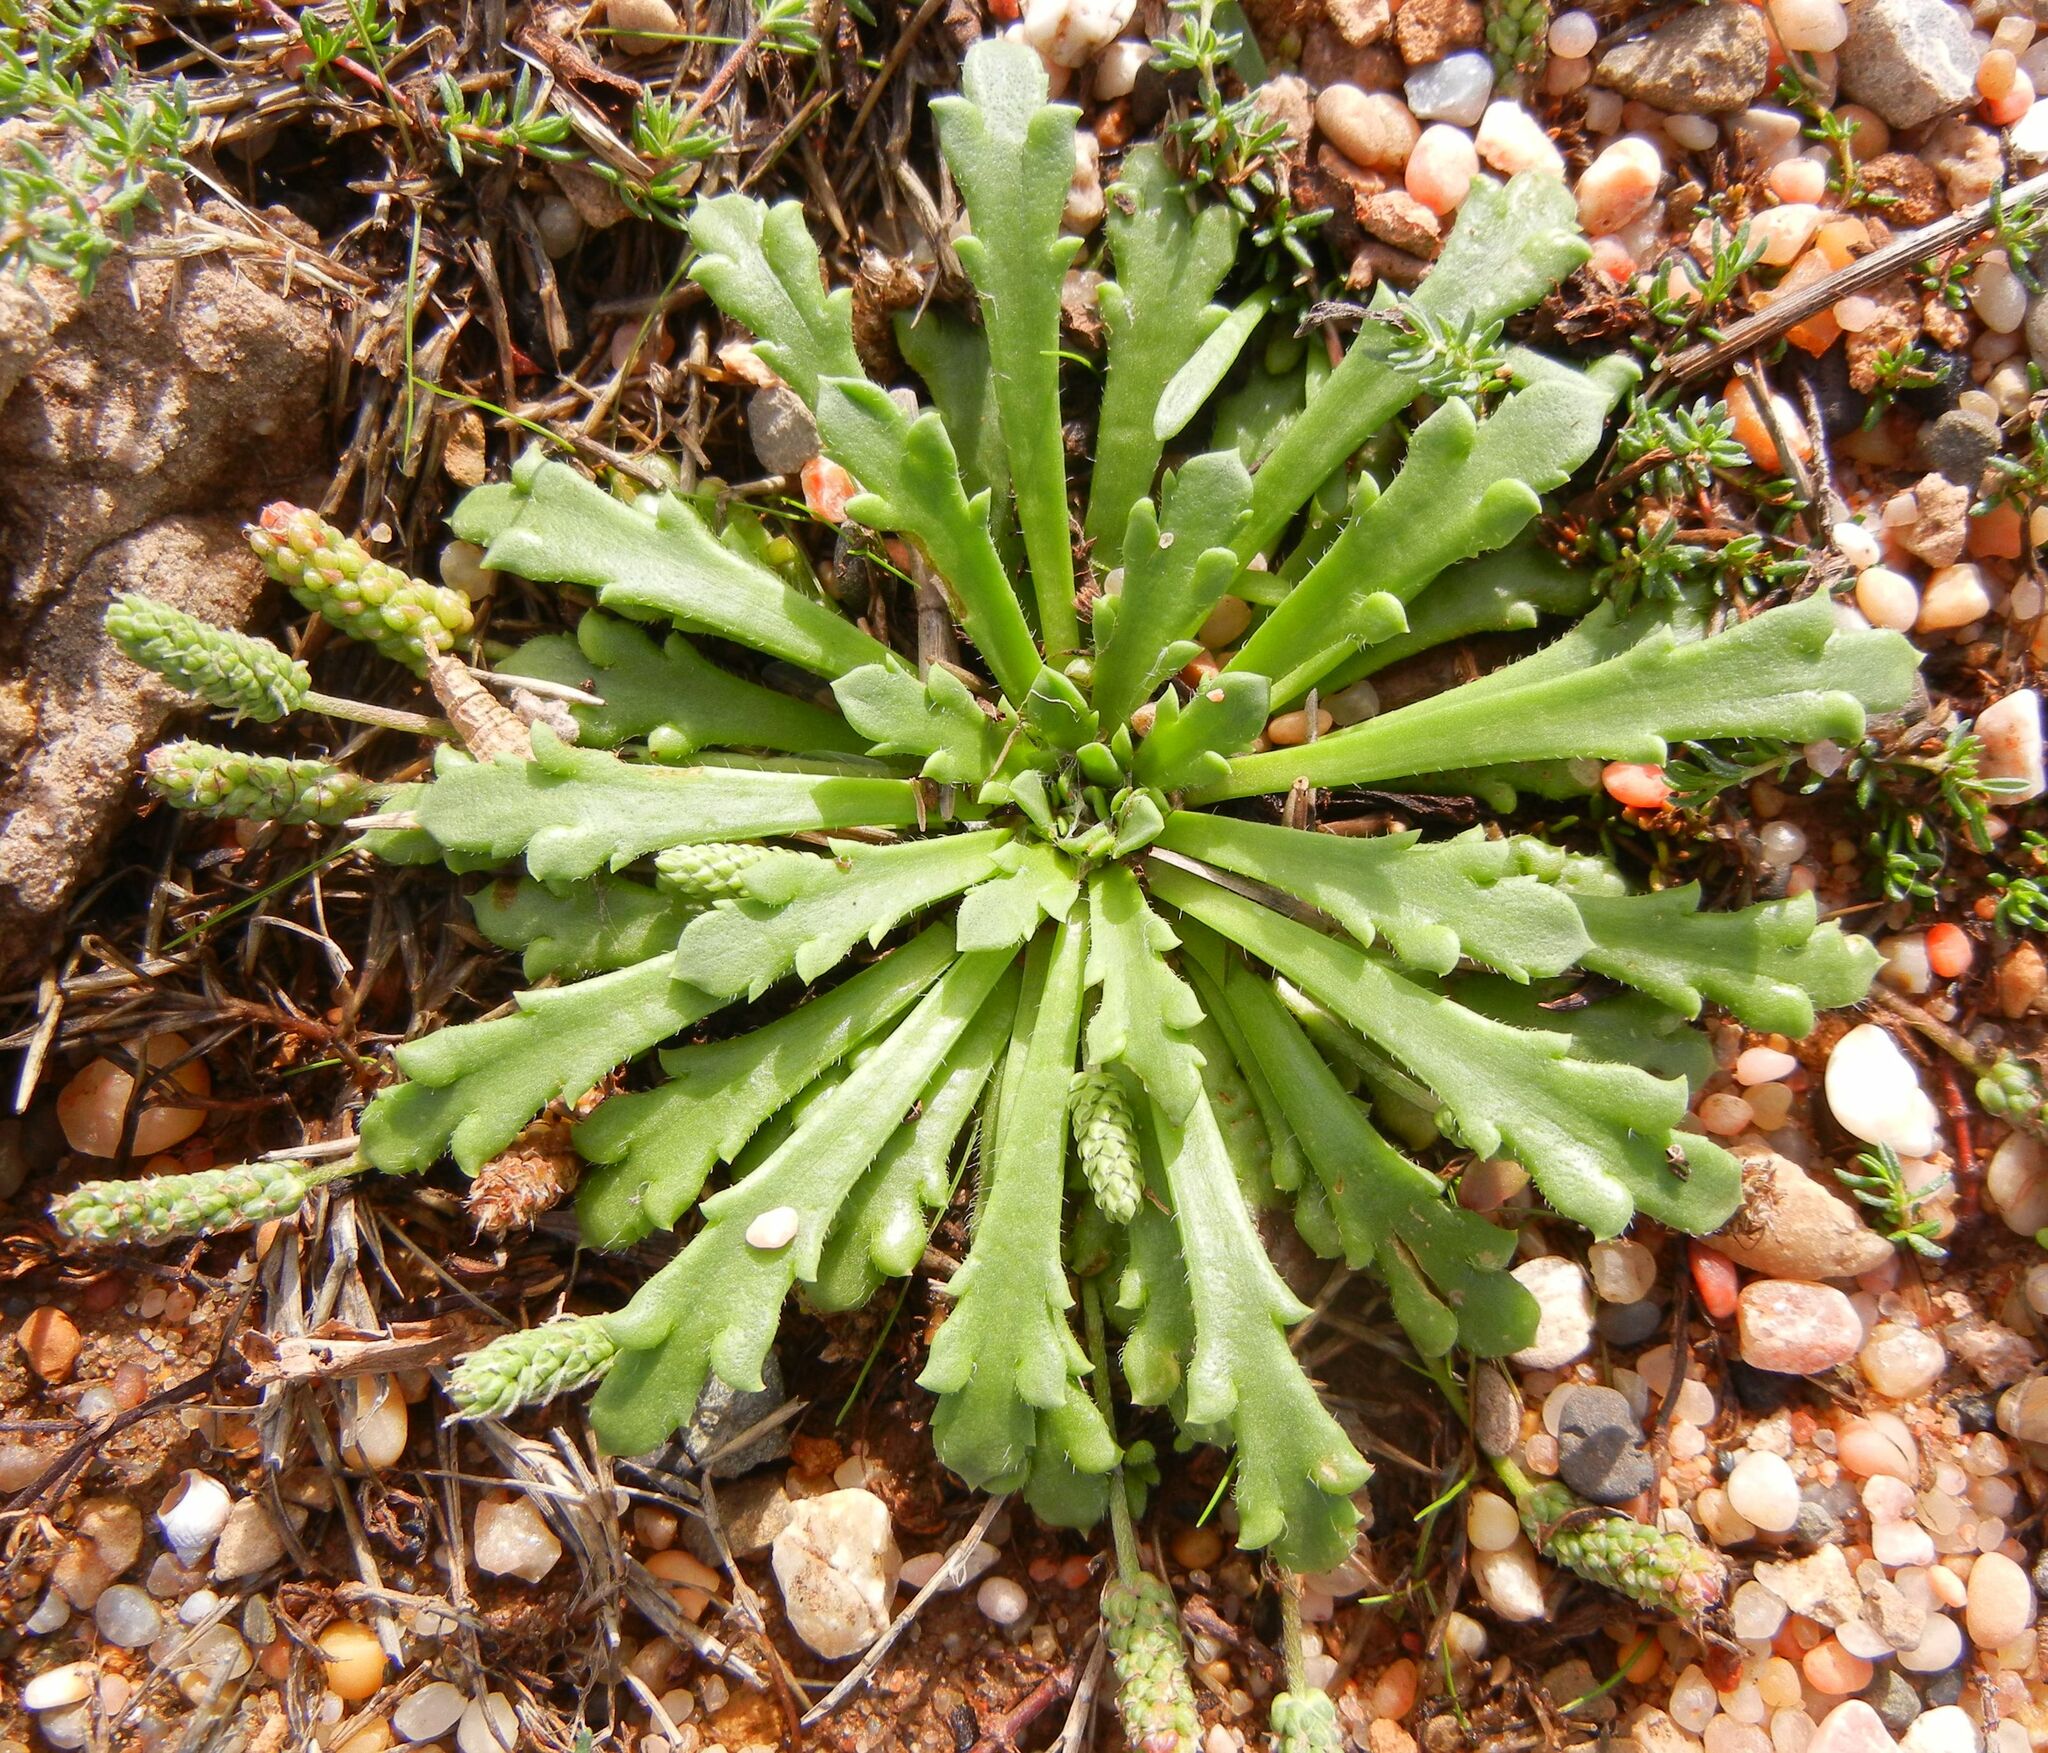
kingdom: Plantae
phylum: Tracheophyta
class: Magnoliopsida
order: Lamiales
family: Plantaginaceae
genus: Plantago
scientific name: Plantago coronopus
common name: Buck's-horn plantain
